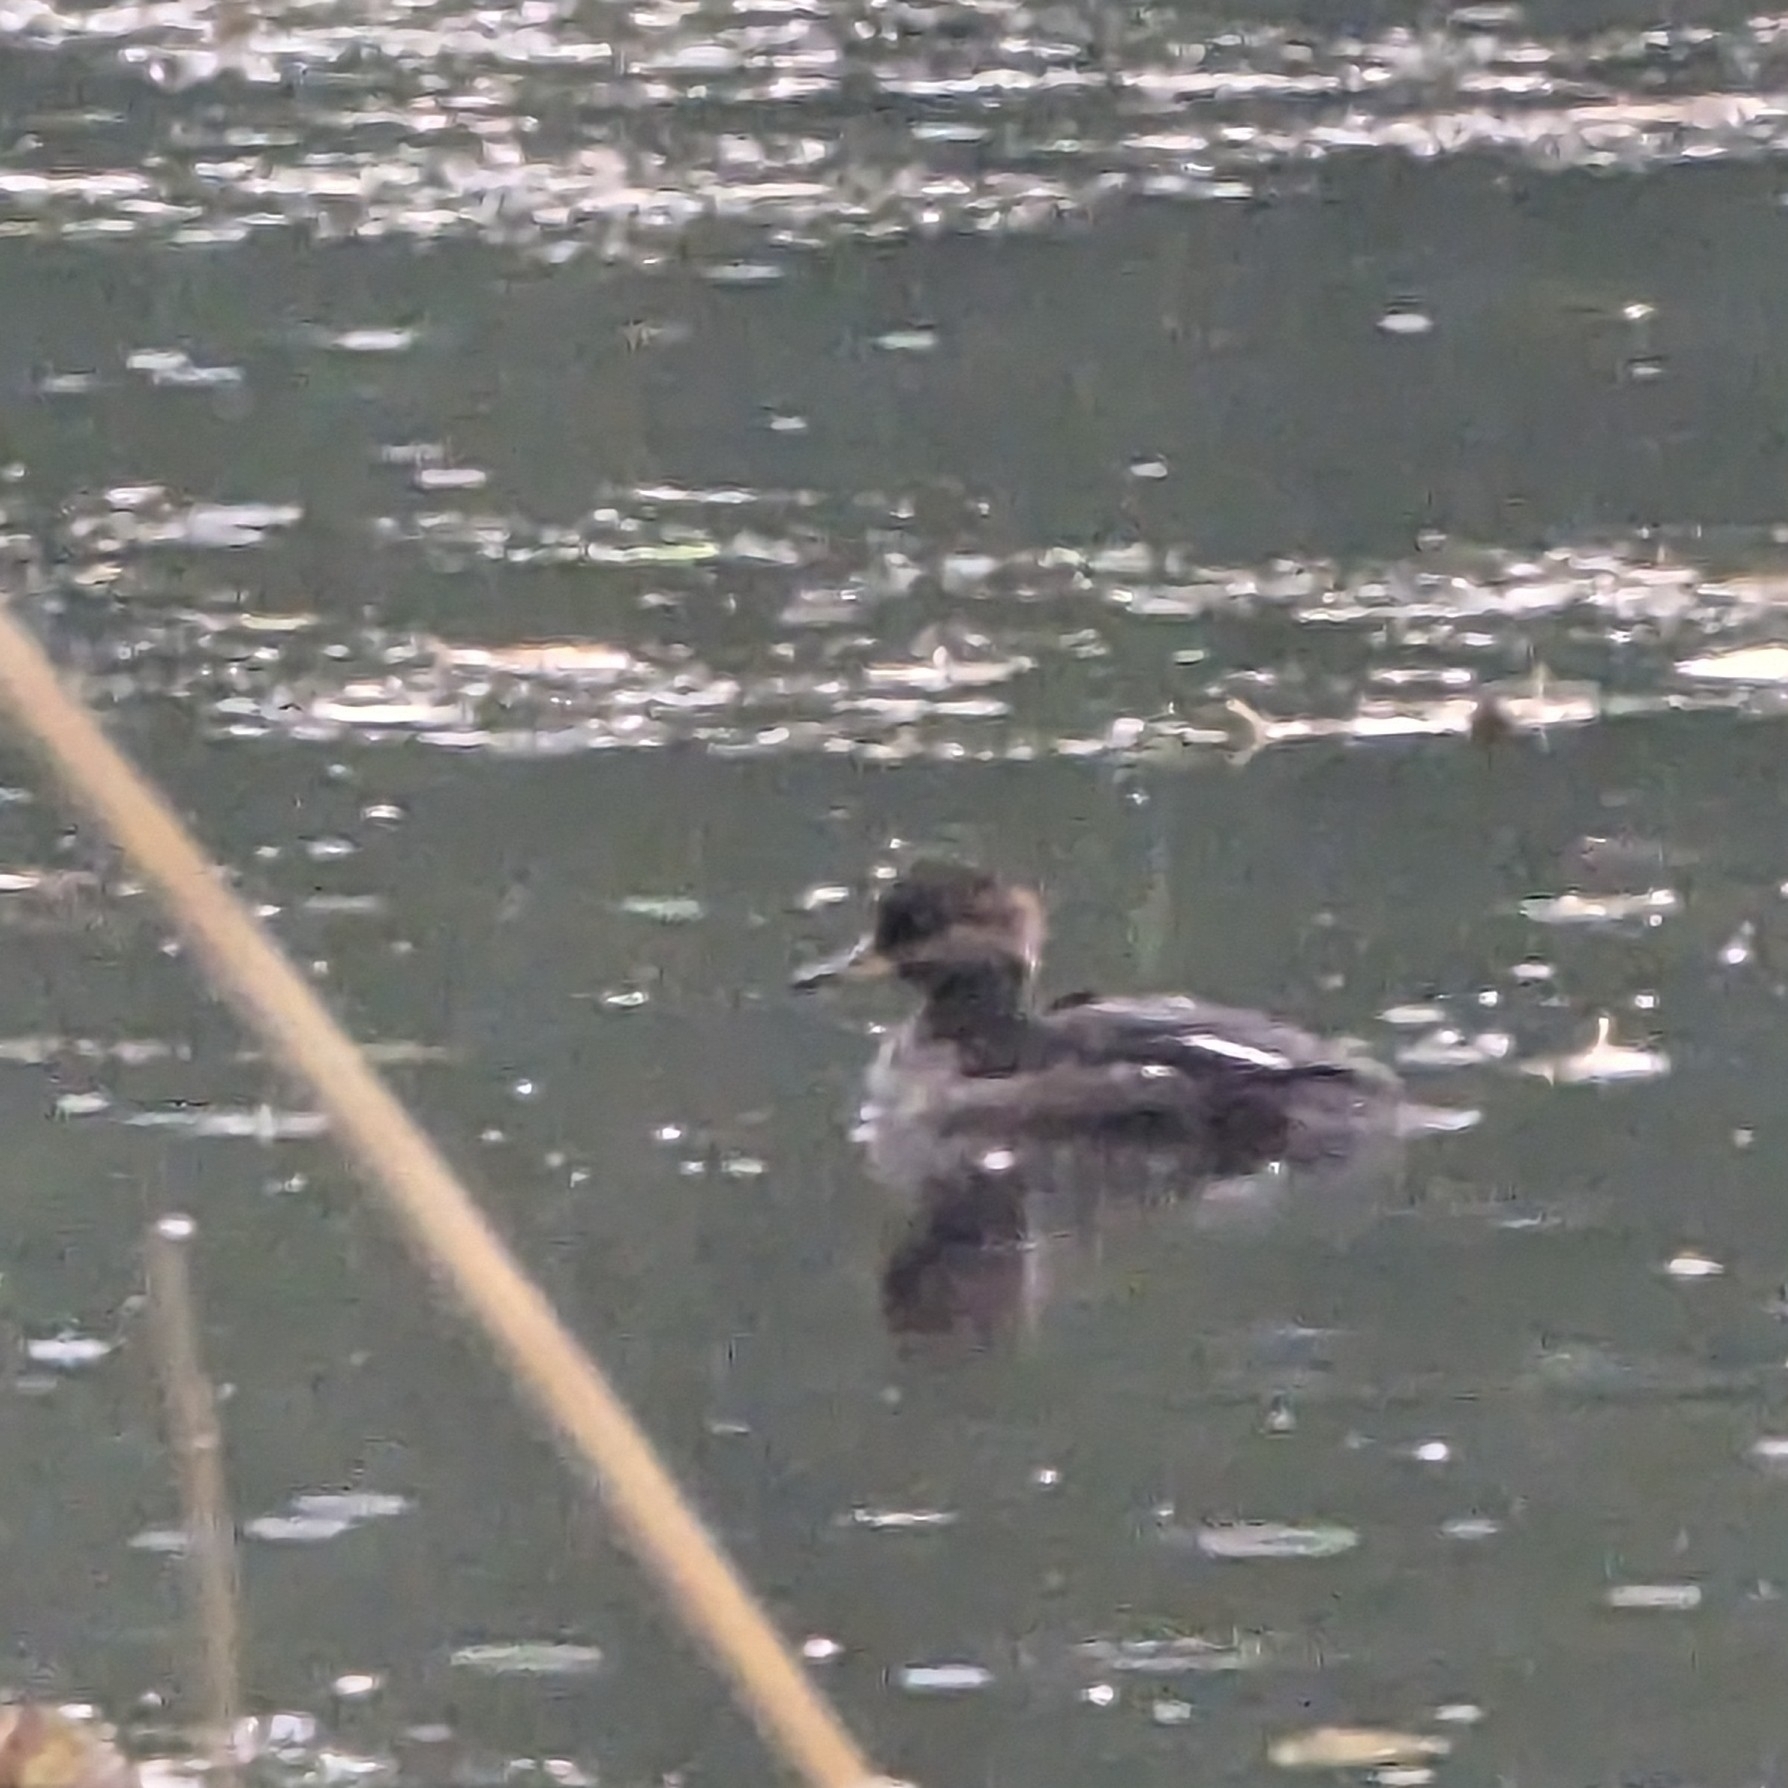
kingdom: Animalia
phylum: Chordata
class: Aves
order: Anseriformes
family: Anatidae
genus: Lophodytes
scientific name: Lophodytes cucullatus
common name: Hooded merganser
